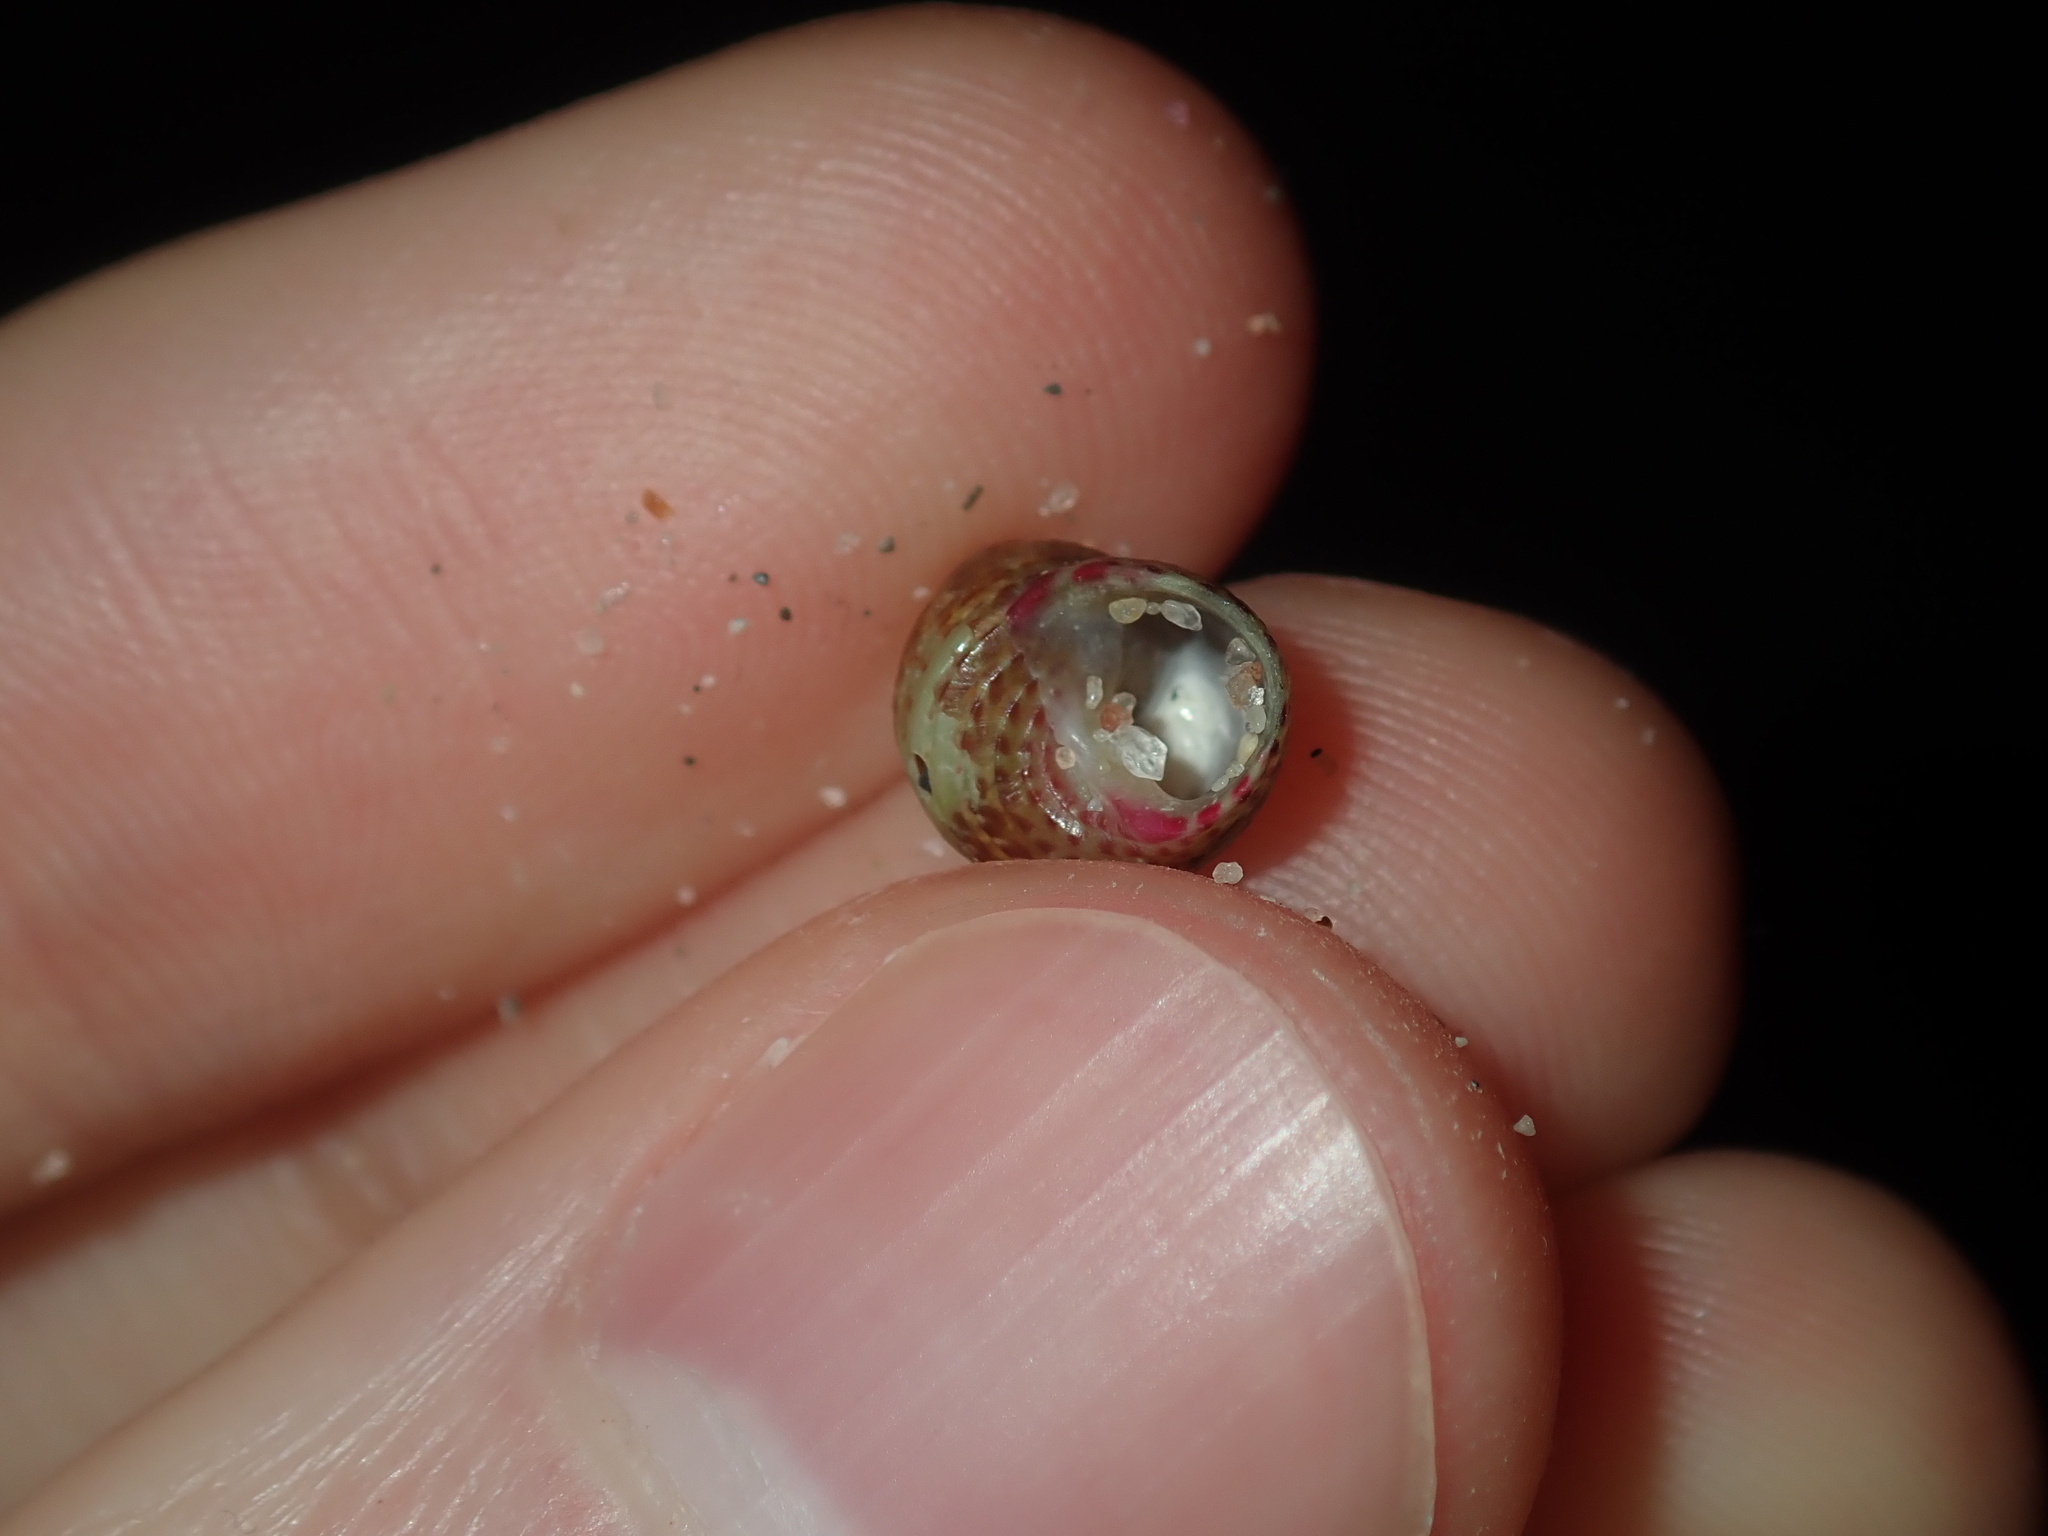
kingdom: Animalia
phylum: Mollusca
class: Gastropoda
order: Trochida
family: Trochidae
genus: Prothalotia
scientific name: Prothalotia pulcherrima
